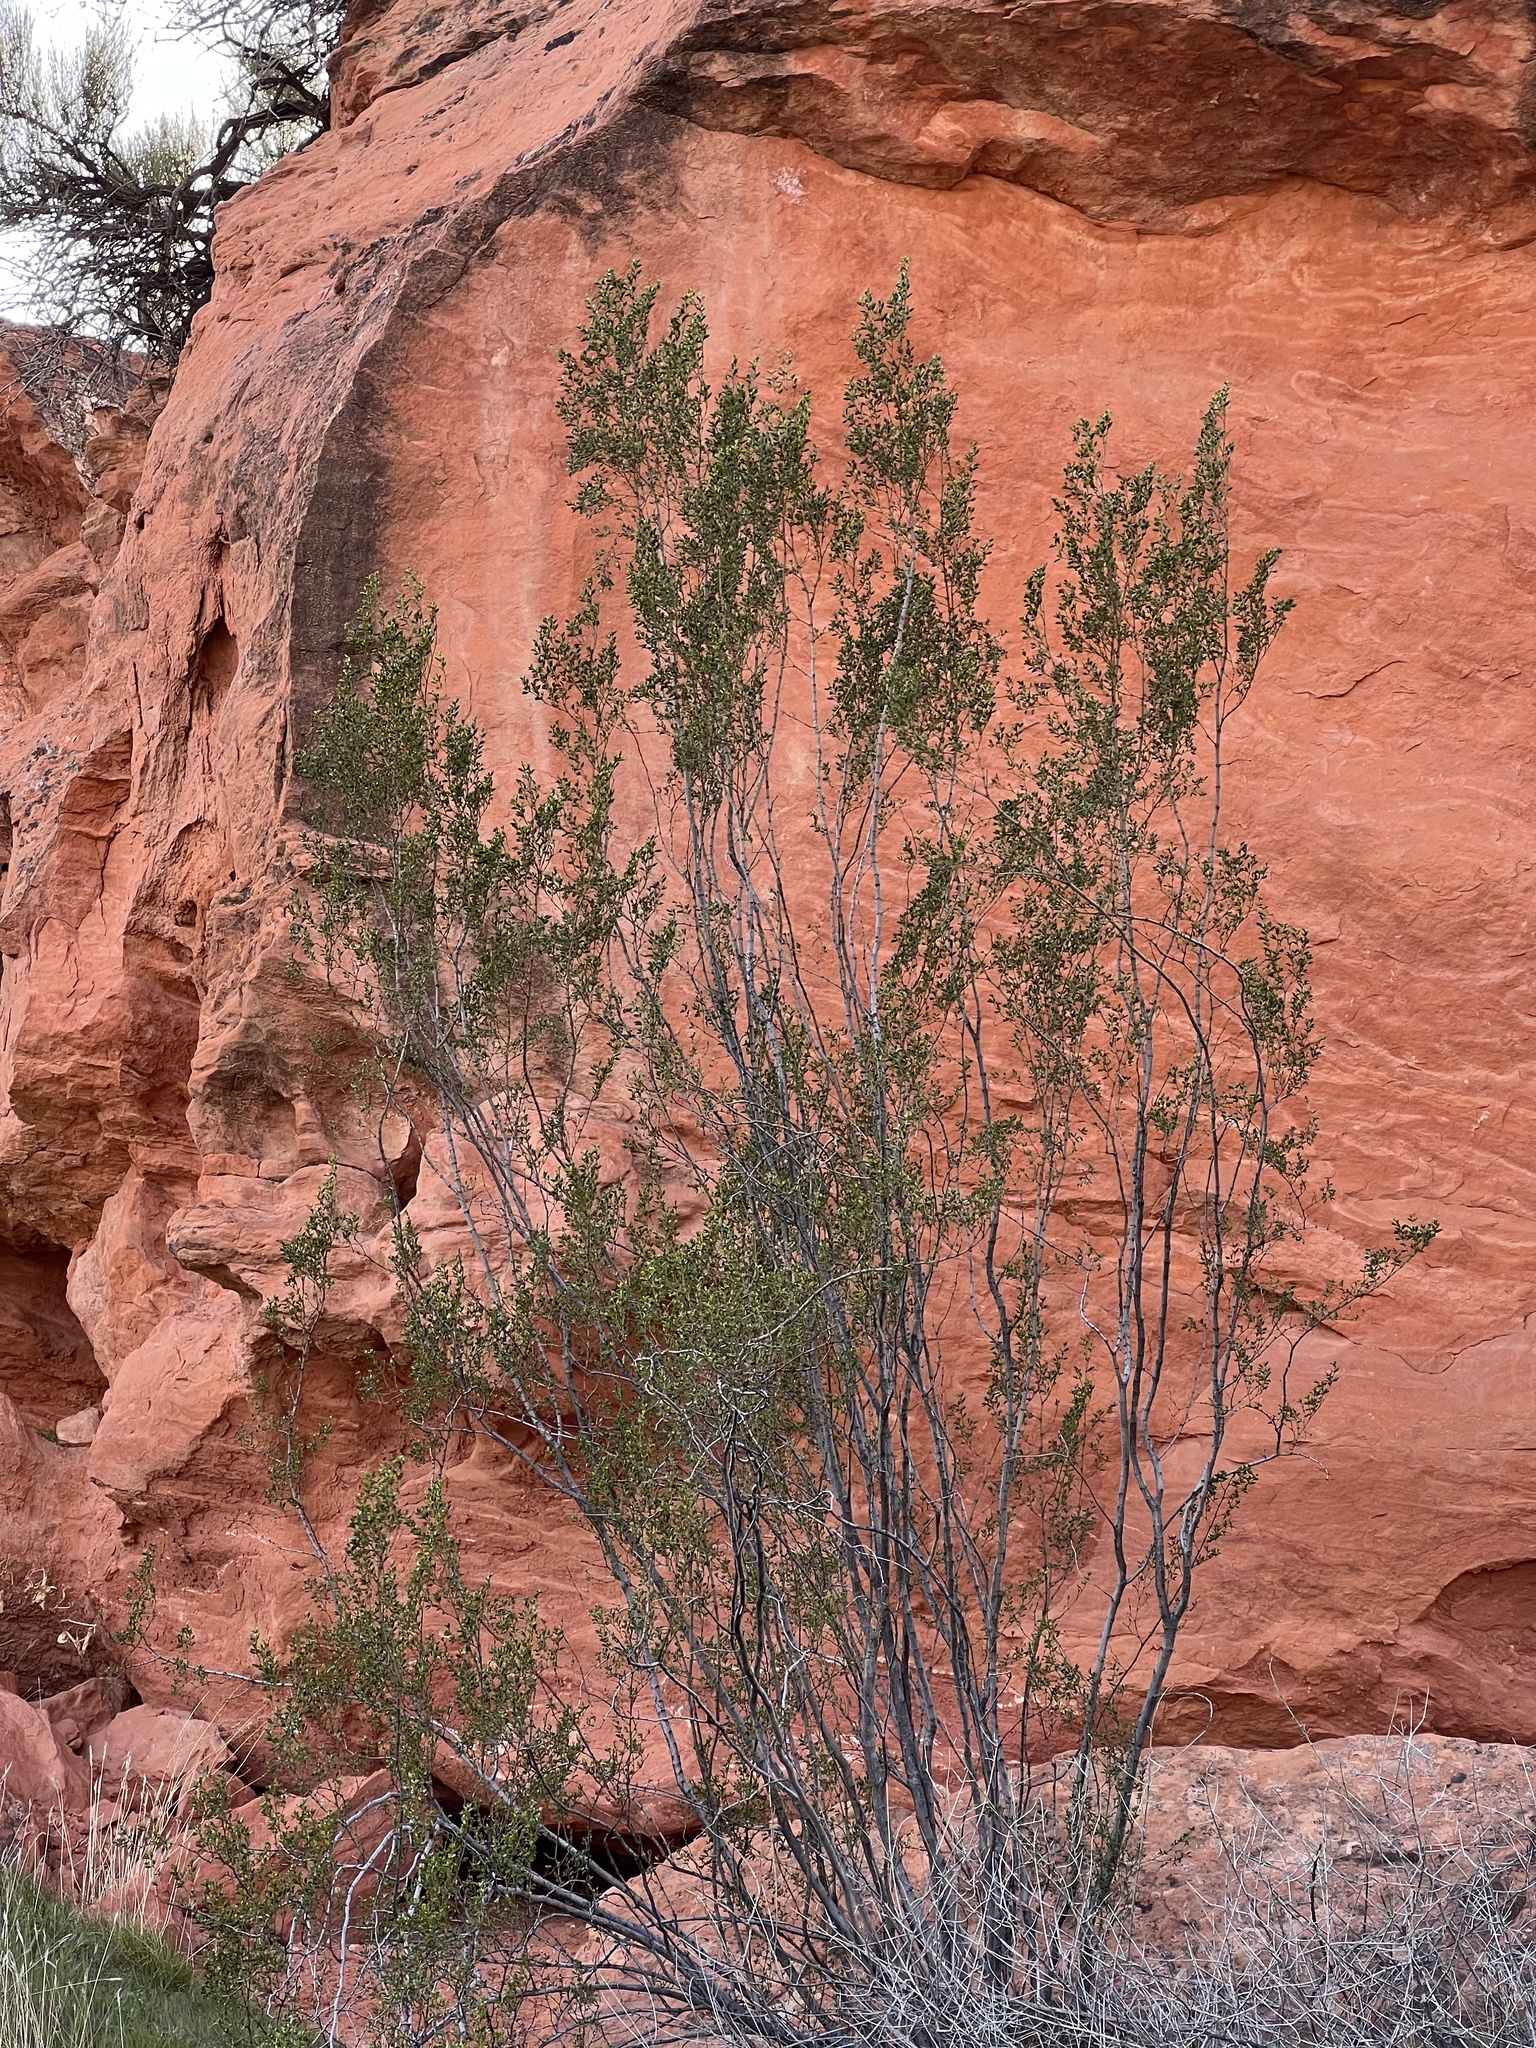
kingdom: Plantae
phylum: Tracheophyta
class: Magnoliopsida
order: Zygophyllales
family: Zygophyllaceae
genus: Larrea
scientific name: Larrea tridentata
